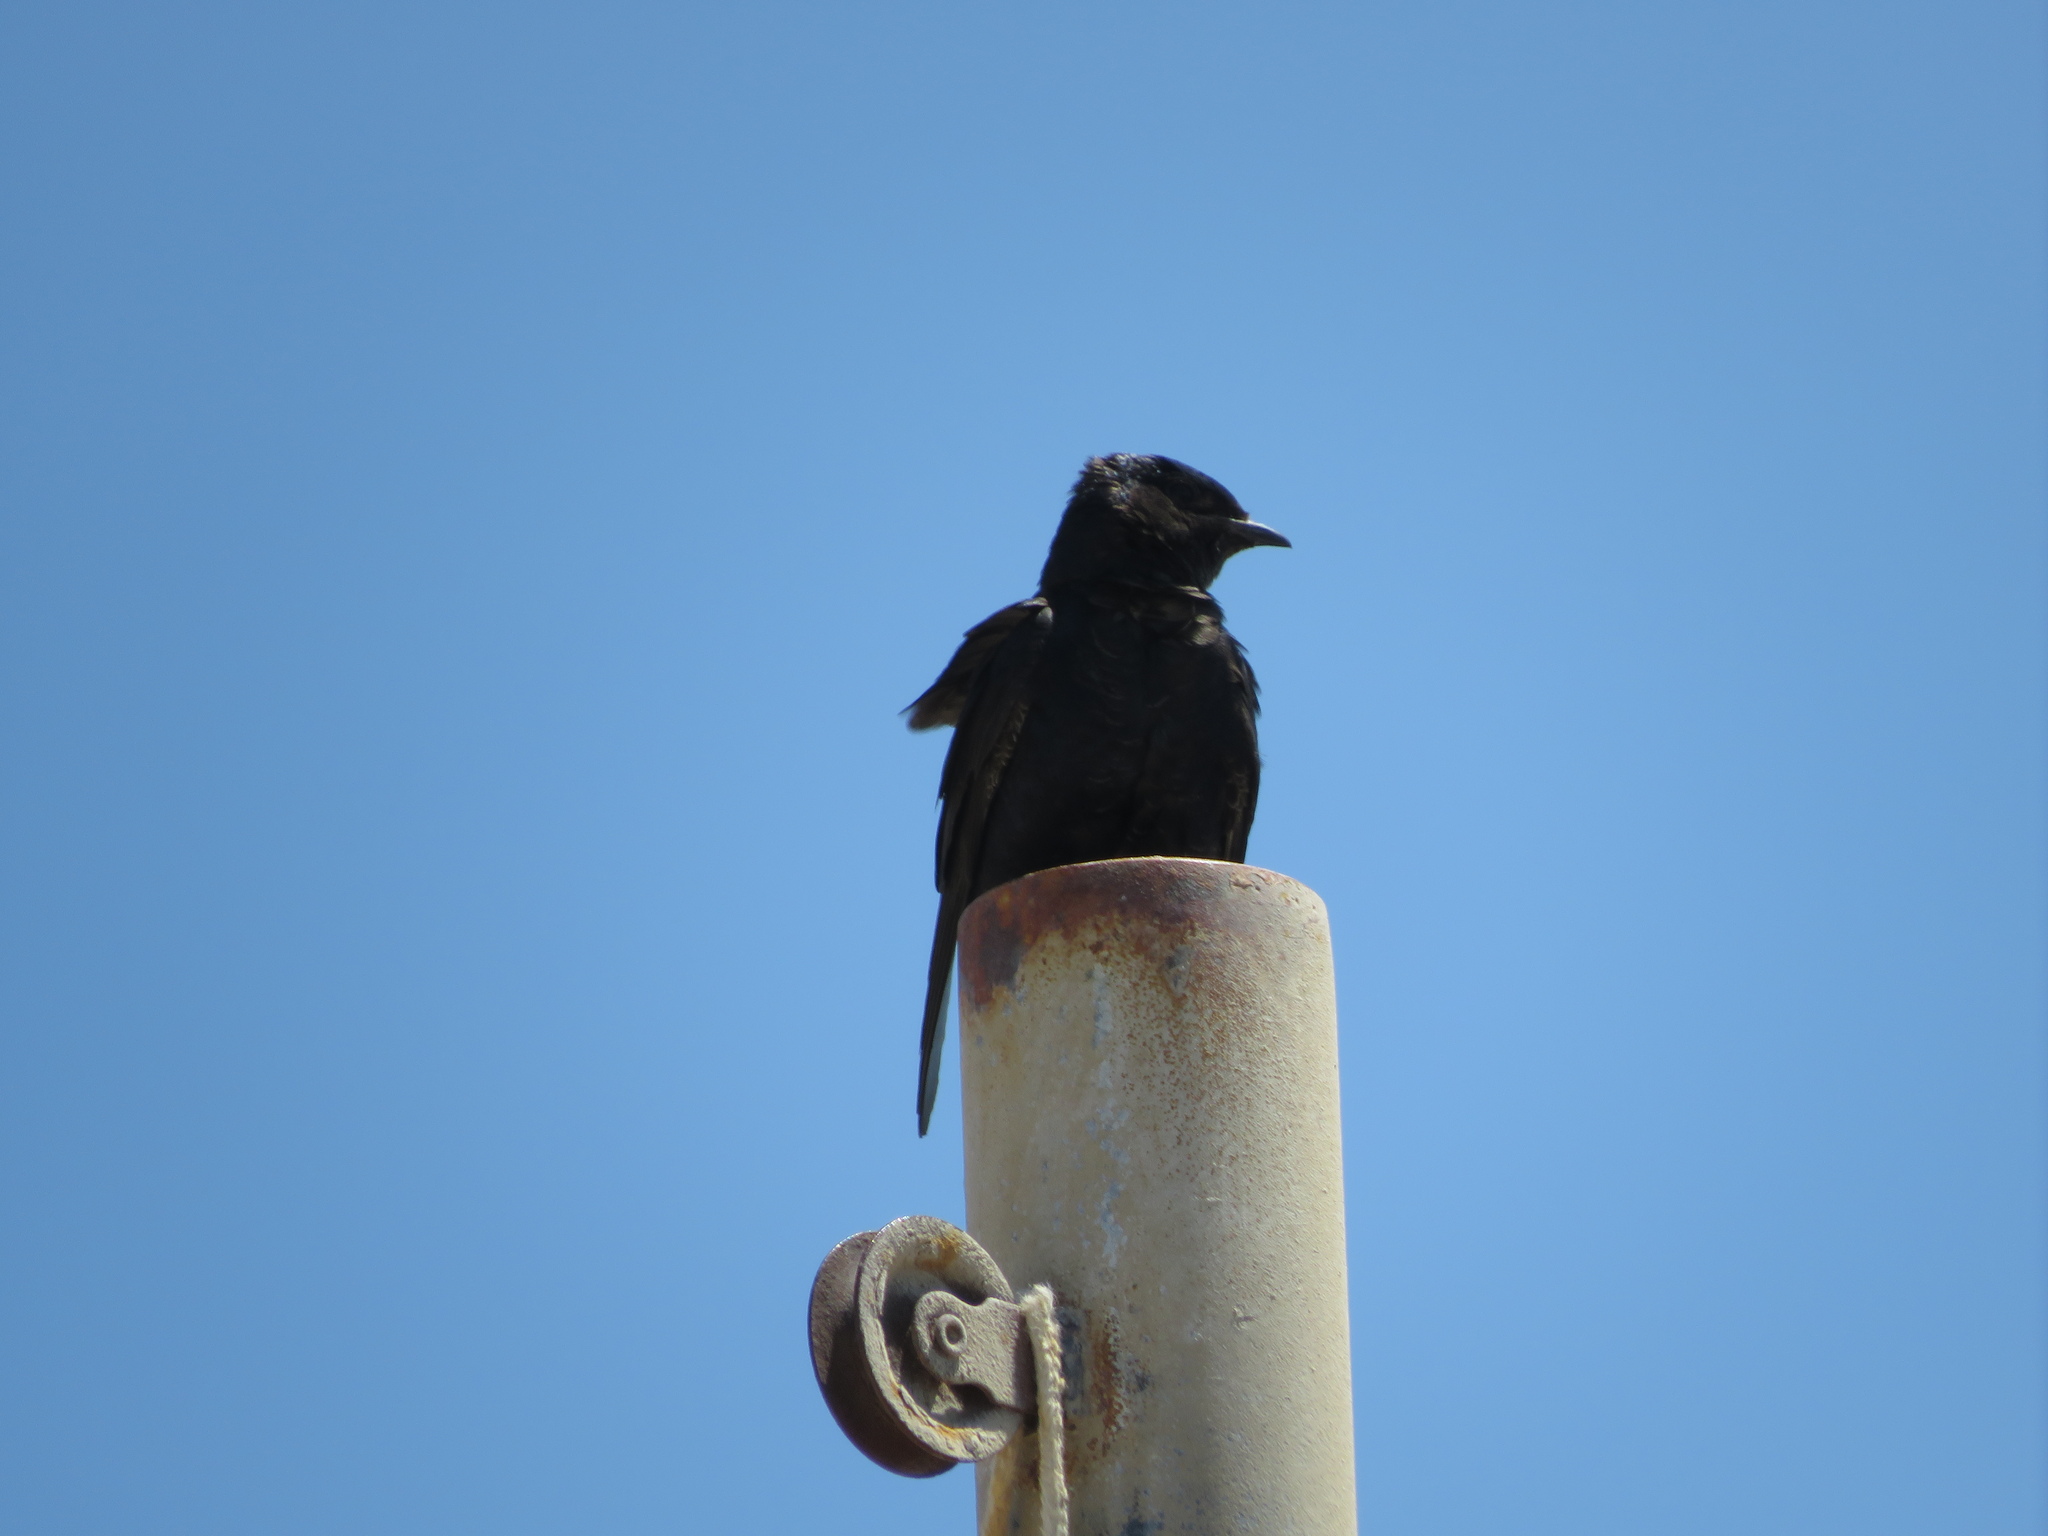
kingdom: Animalia
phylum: Chordata
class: Aves
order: Passeriformes
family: Hirundinidae
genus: Progne
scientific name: Progne elegans
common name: Southern martin
